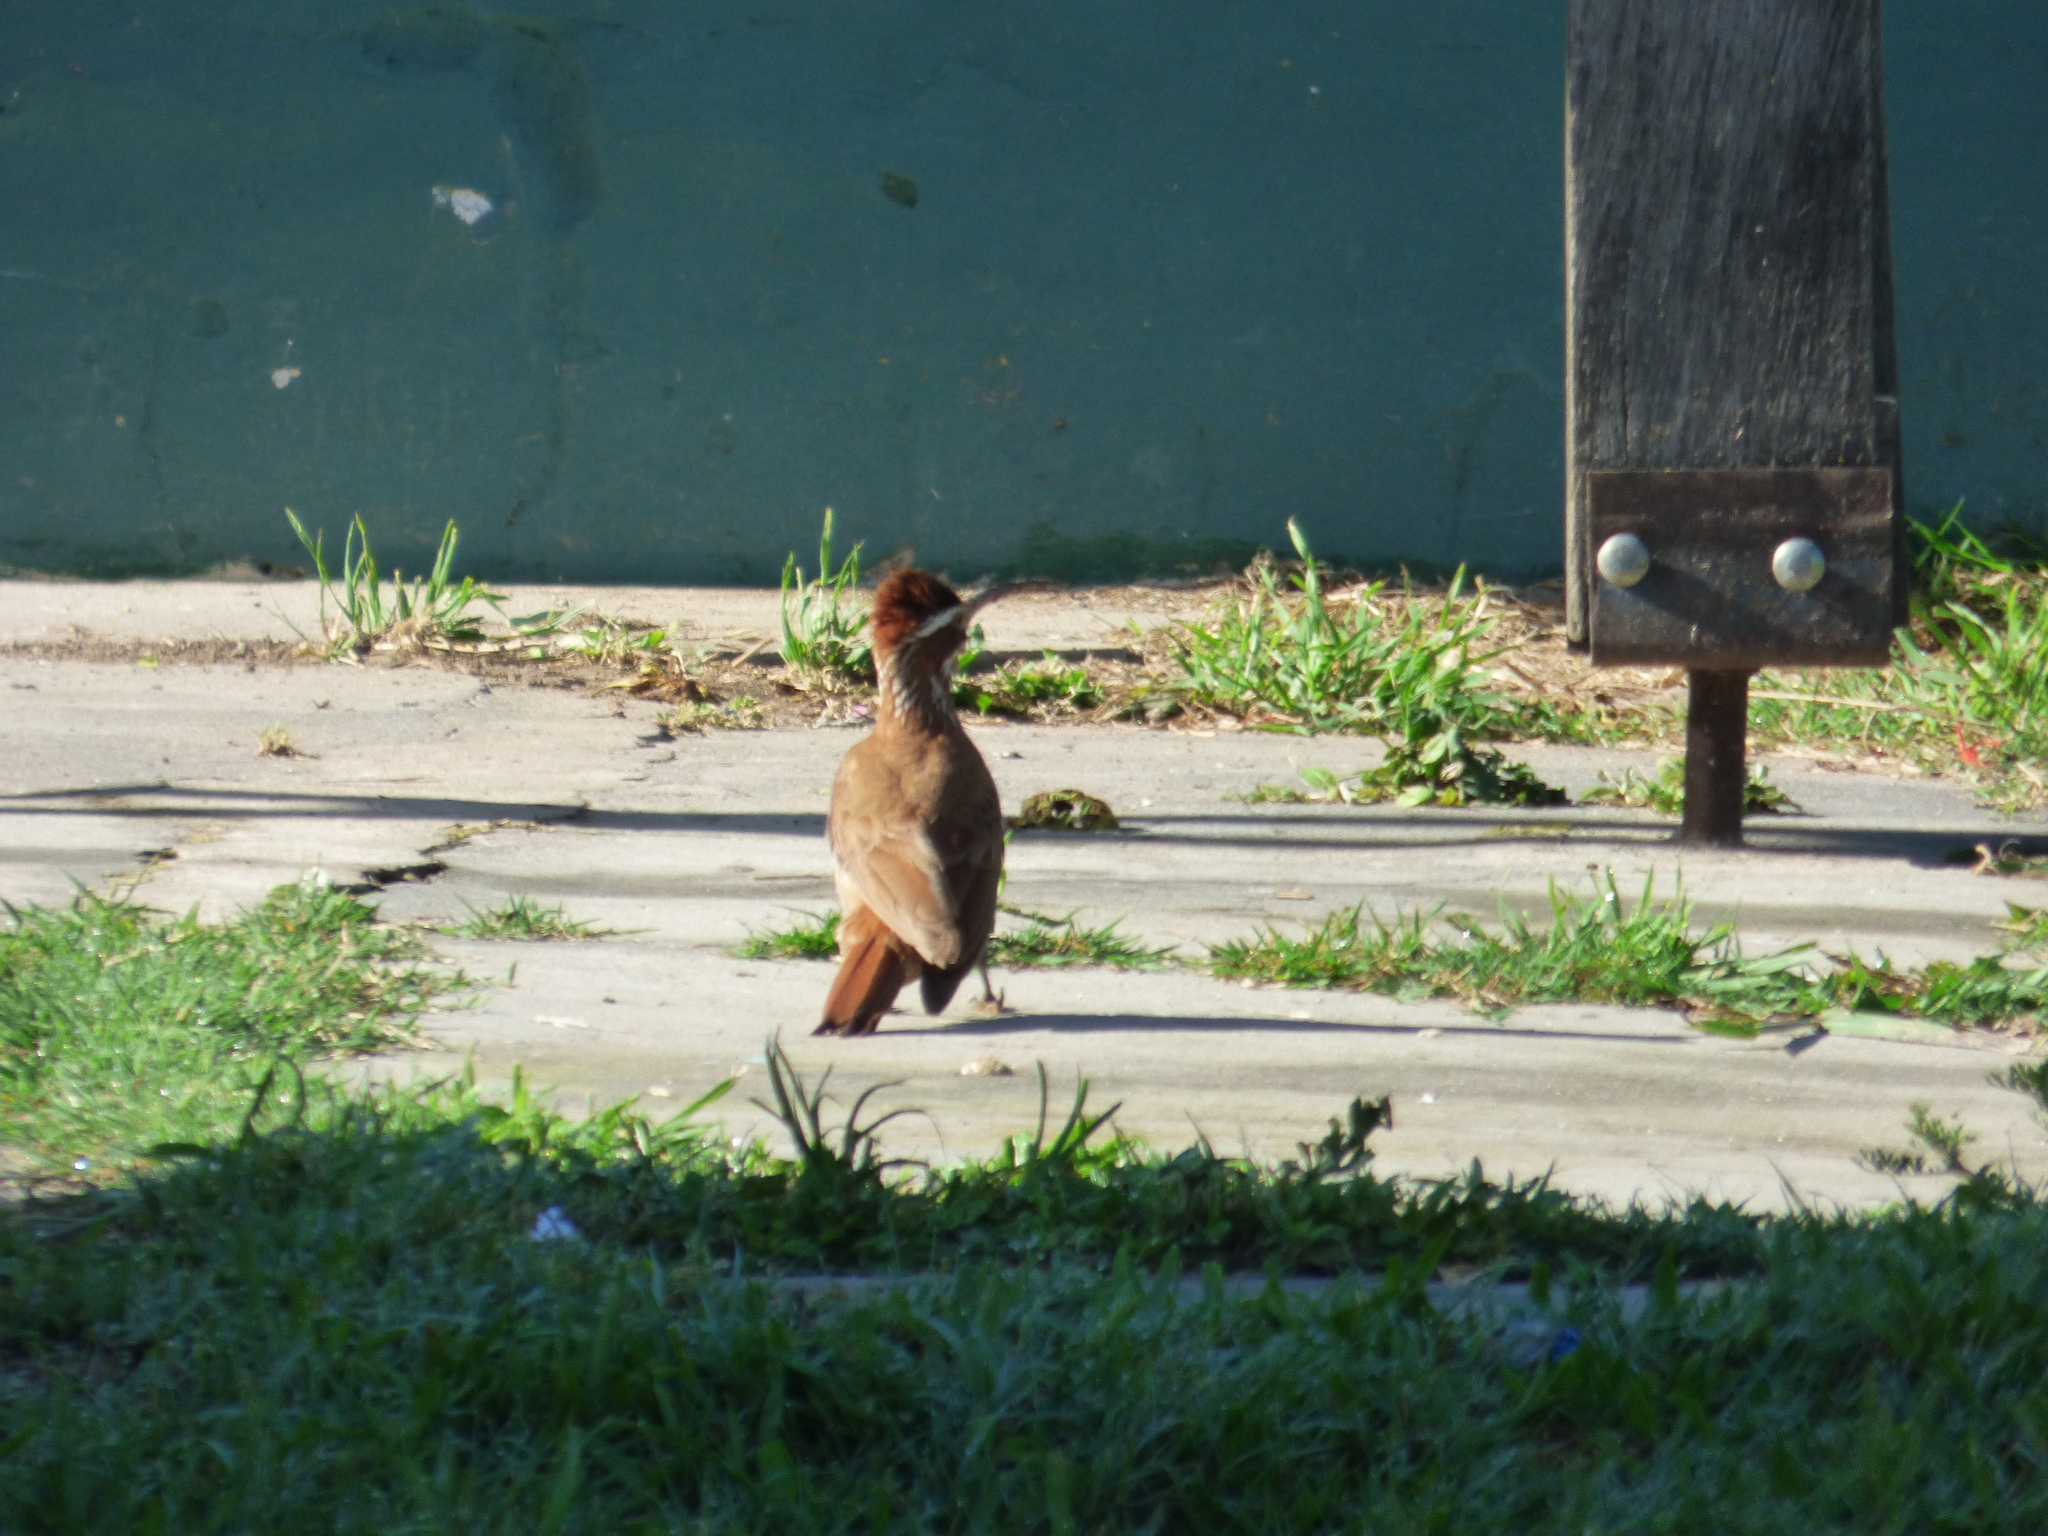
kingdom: Animalia
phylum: Chordata
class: Aves
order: Passeriformes
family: Furnariidae
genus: Drymornis
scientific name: Drymornis bridgesii
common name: Scimitar-billed woodcreeper
